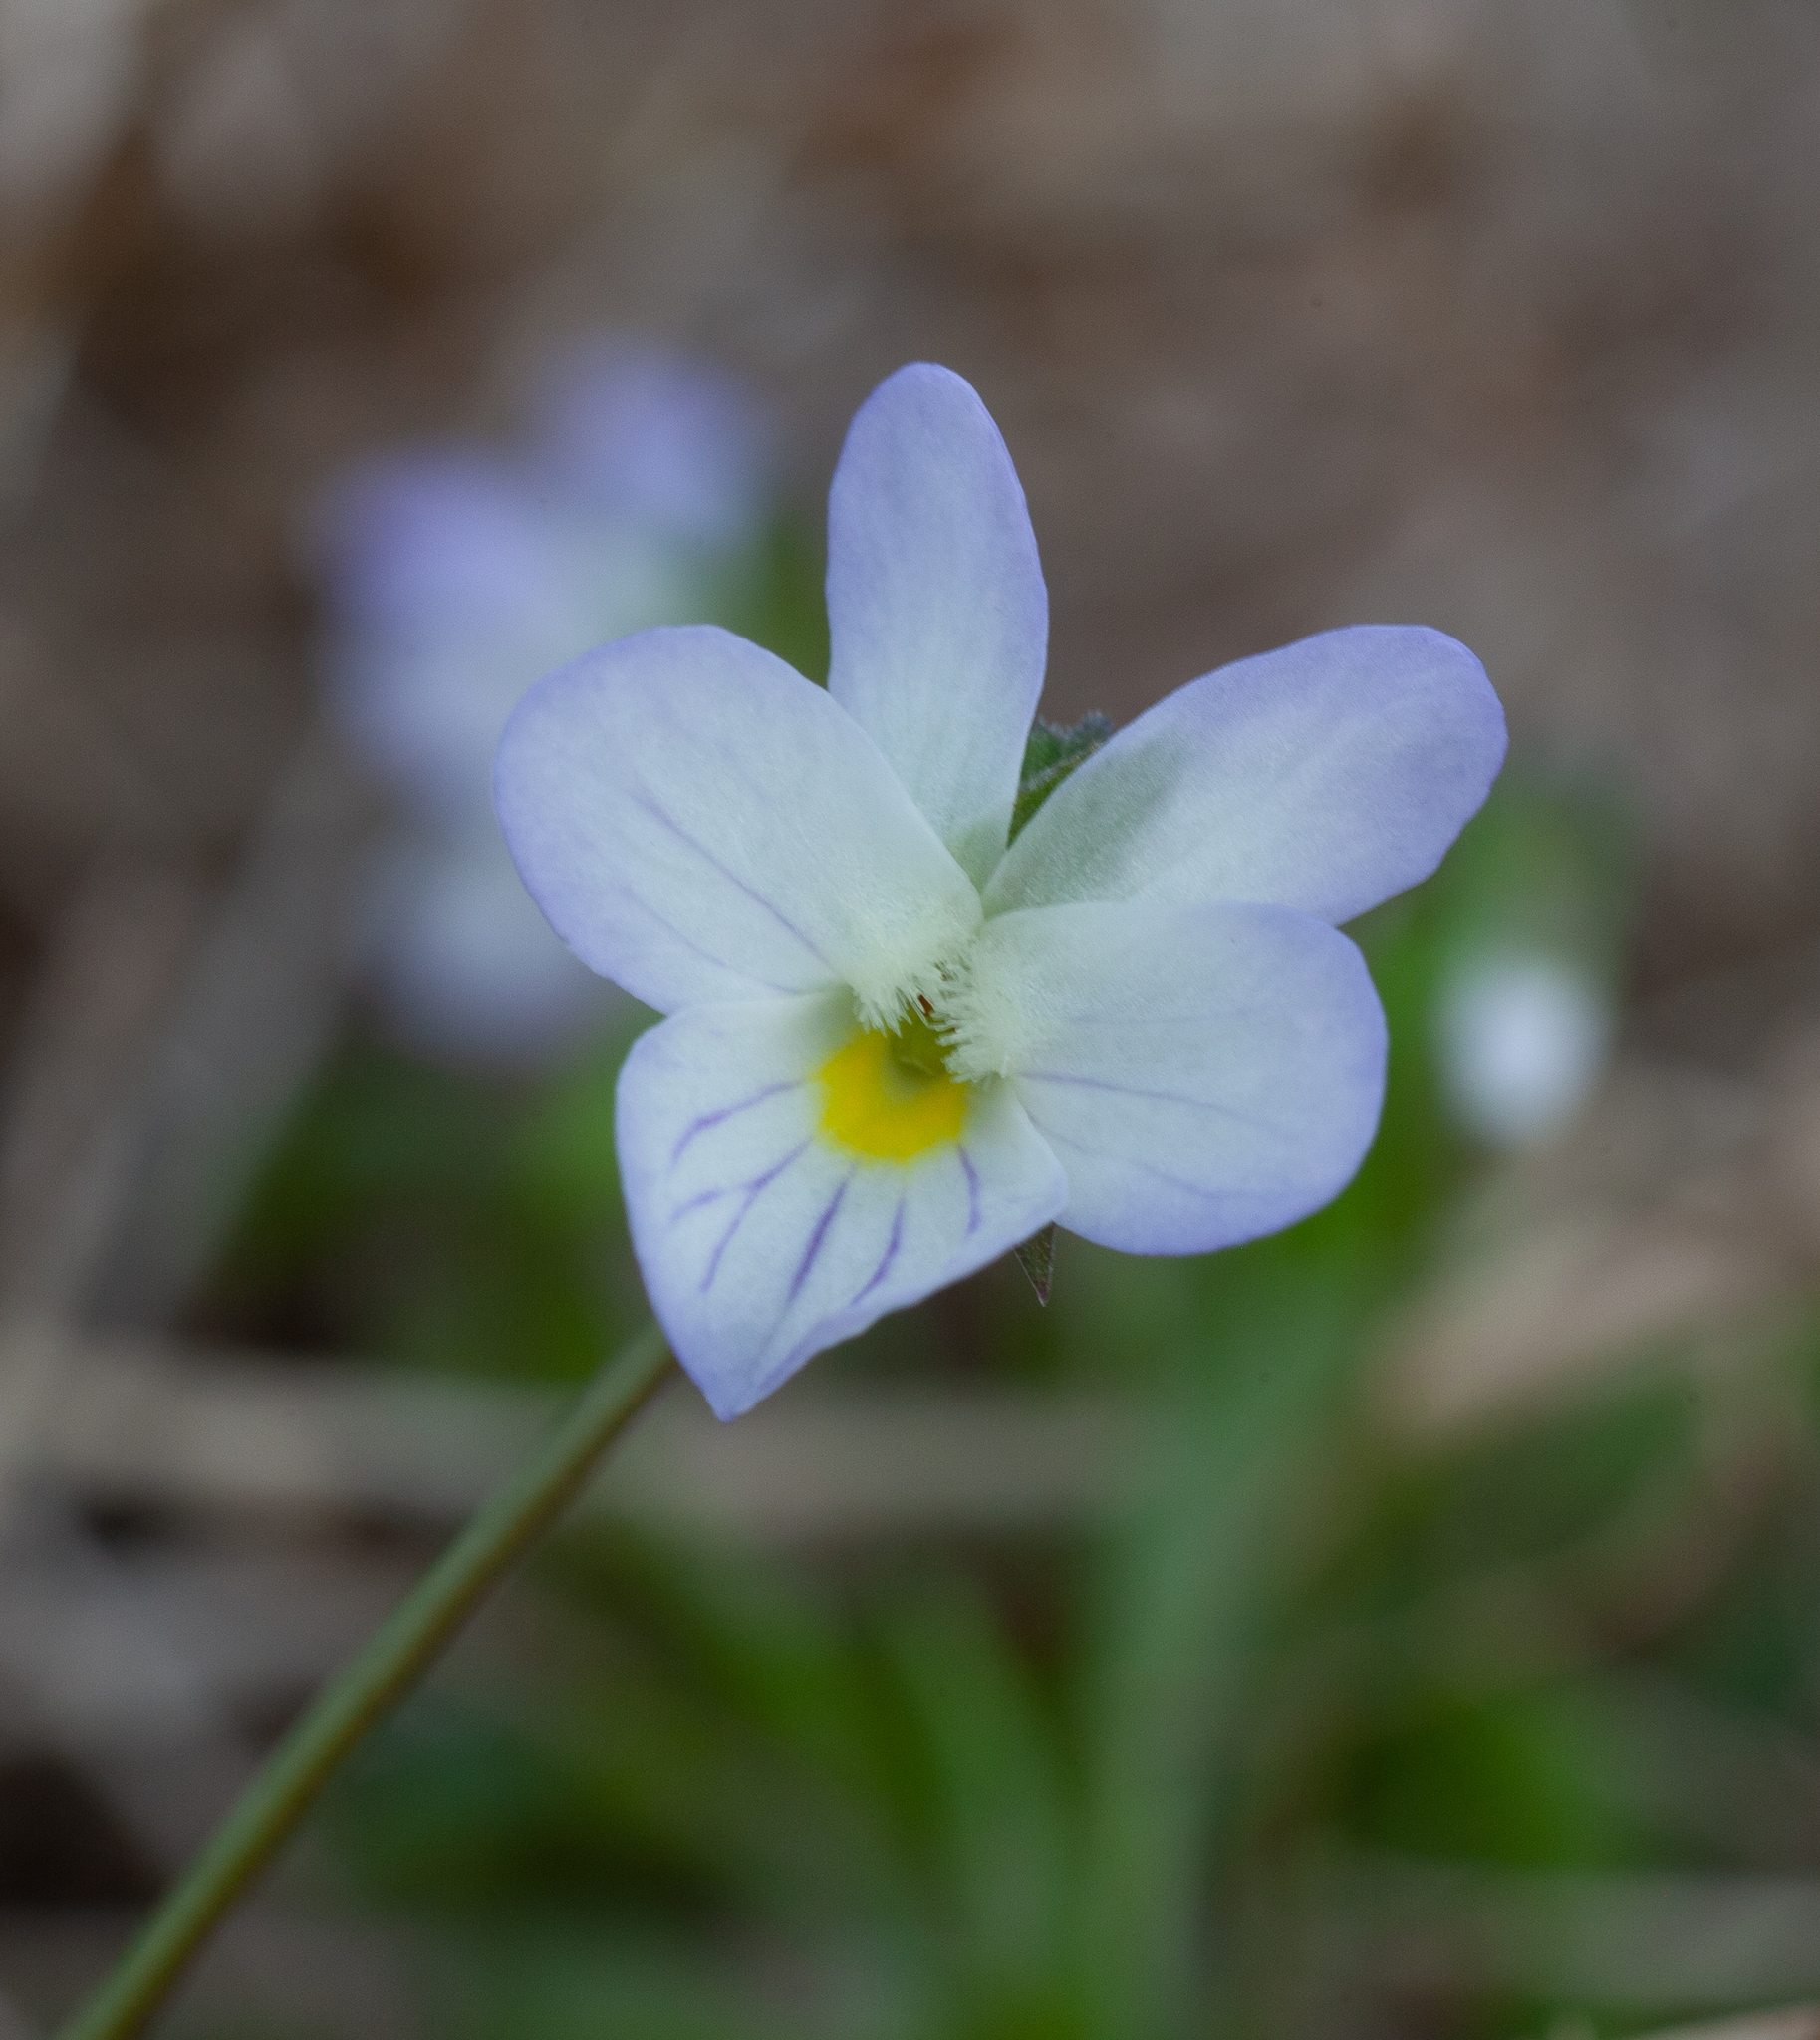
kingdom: Plantae
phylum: Tracheophyta
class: Magnoliopsida
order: Malpighiales
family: Violaceae
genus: Viola
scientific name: Viola rafinesquei
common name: American field pansy
